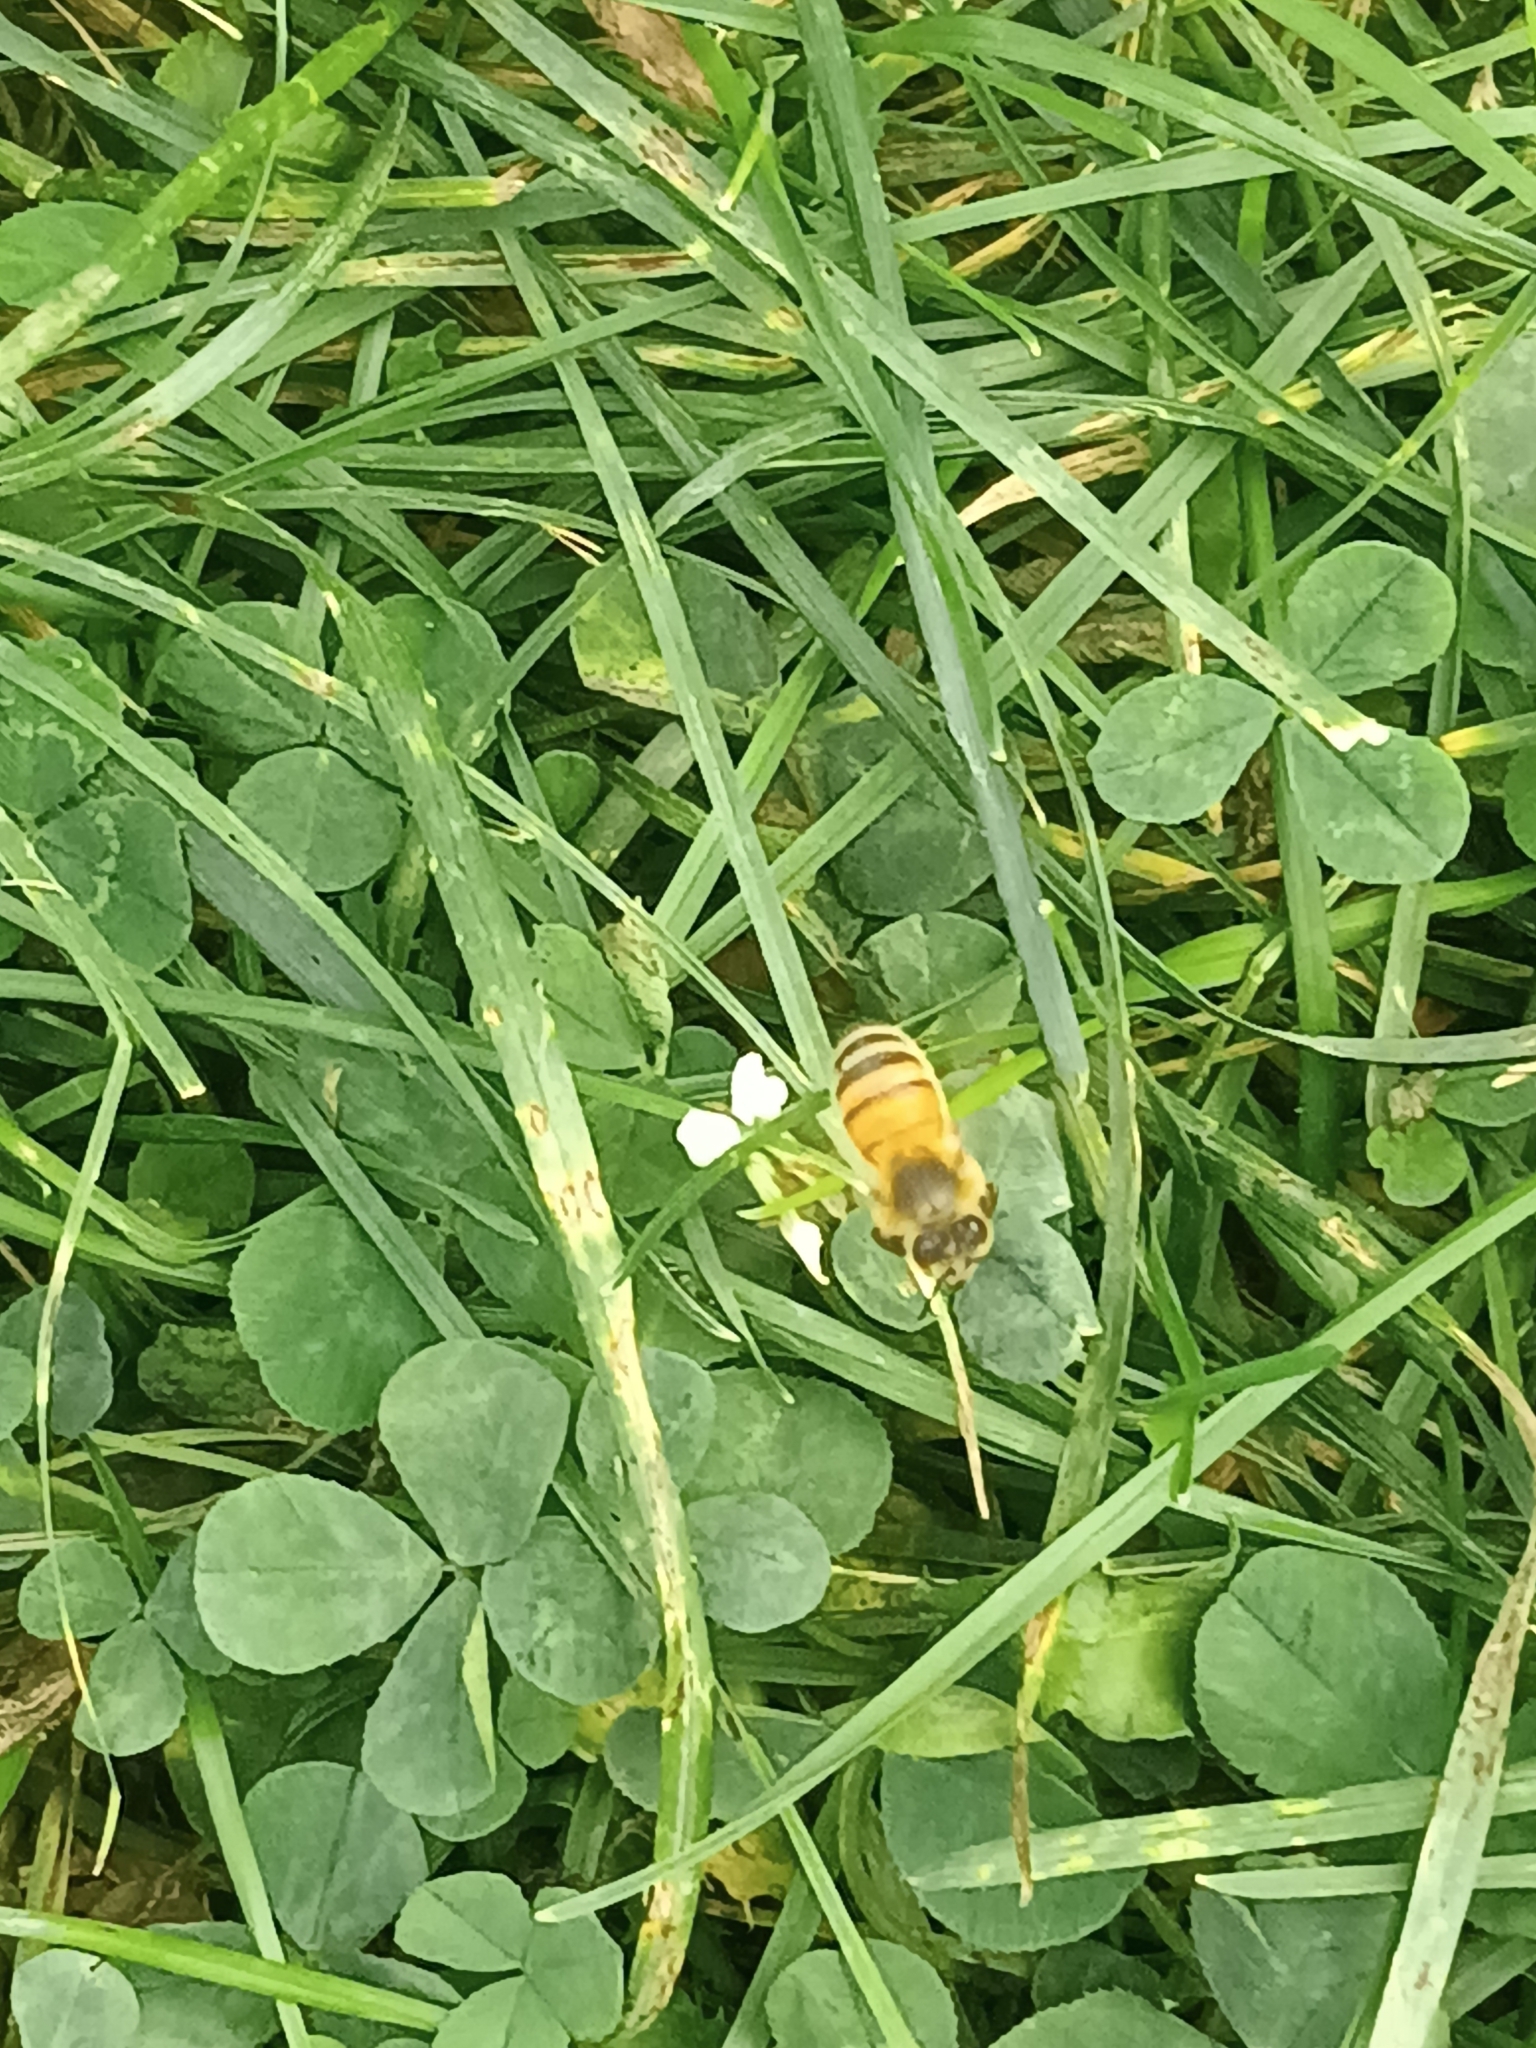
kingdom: Animalia
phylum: Arthropoda
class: Insecta
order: Hymenoptera
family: Apidae
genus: Apis
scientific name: Apis mellifera
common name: Honey bee
